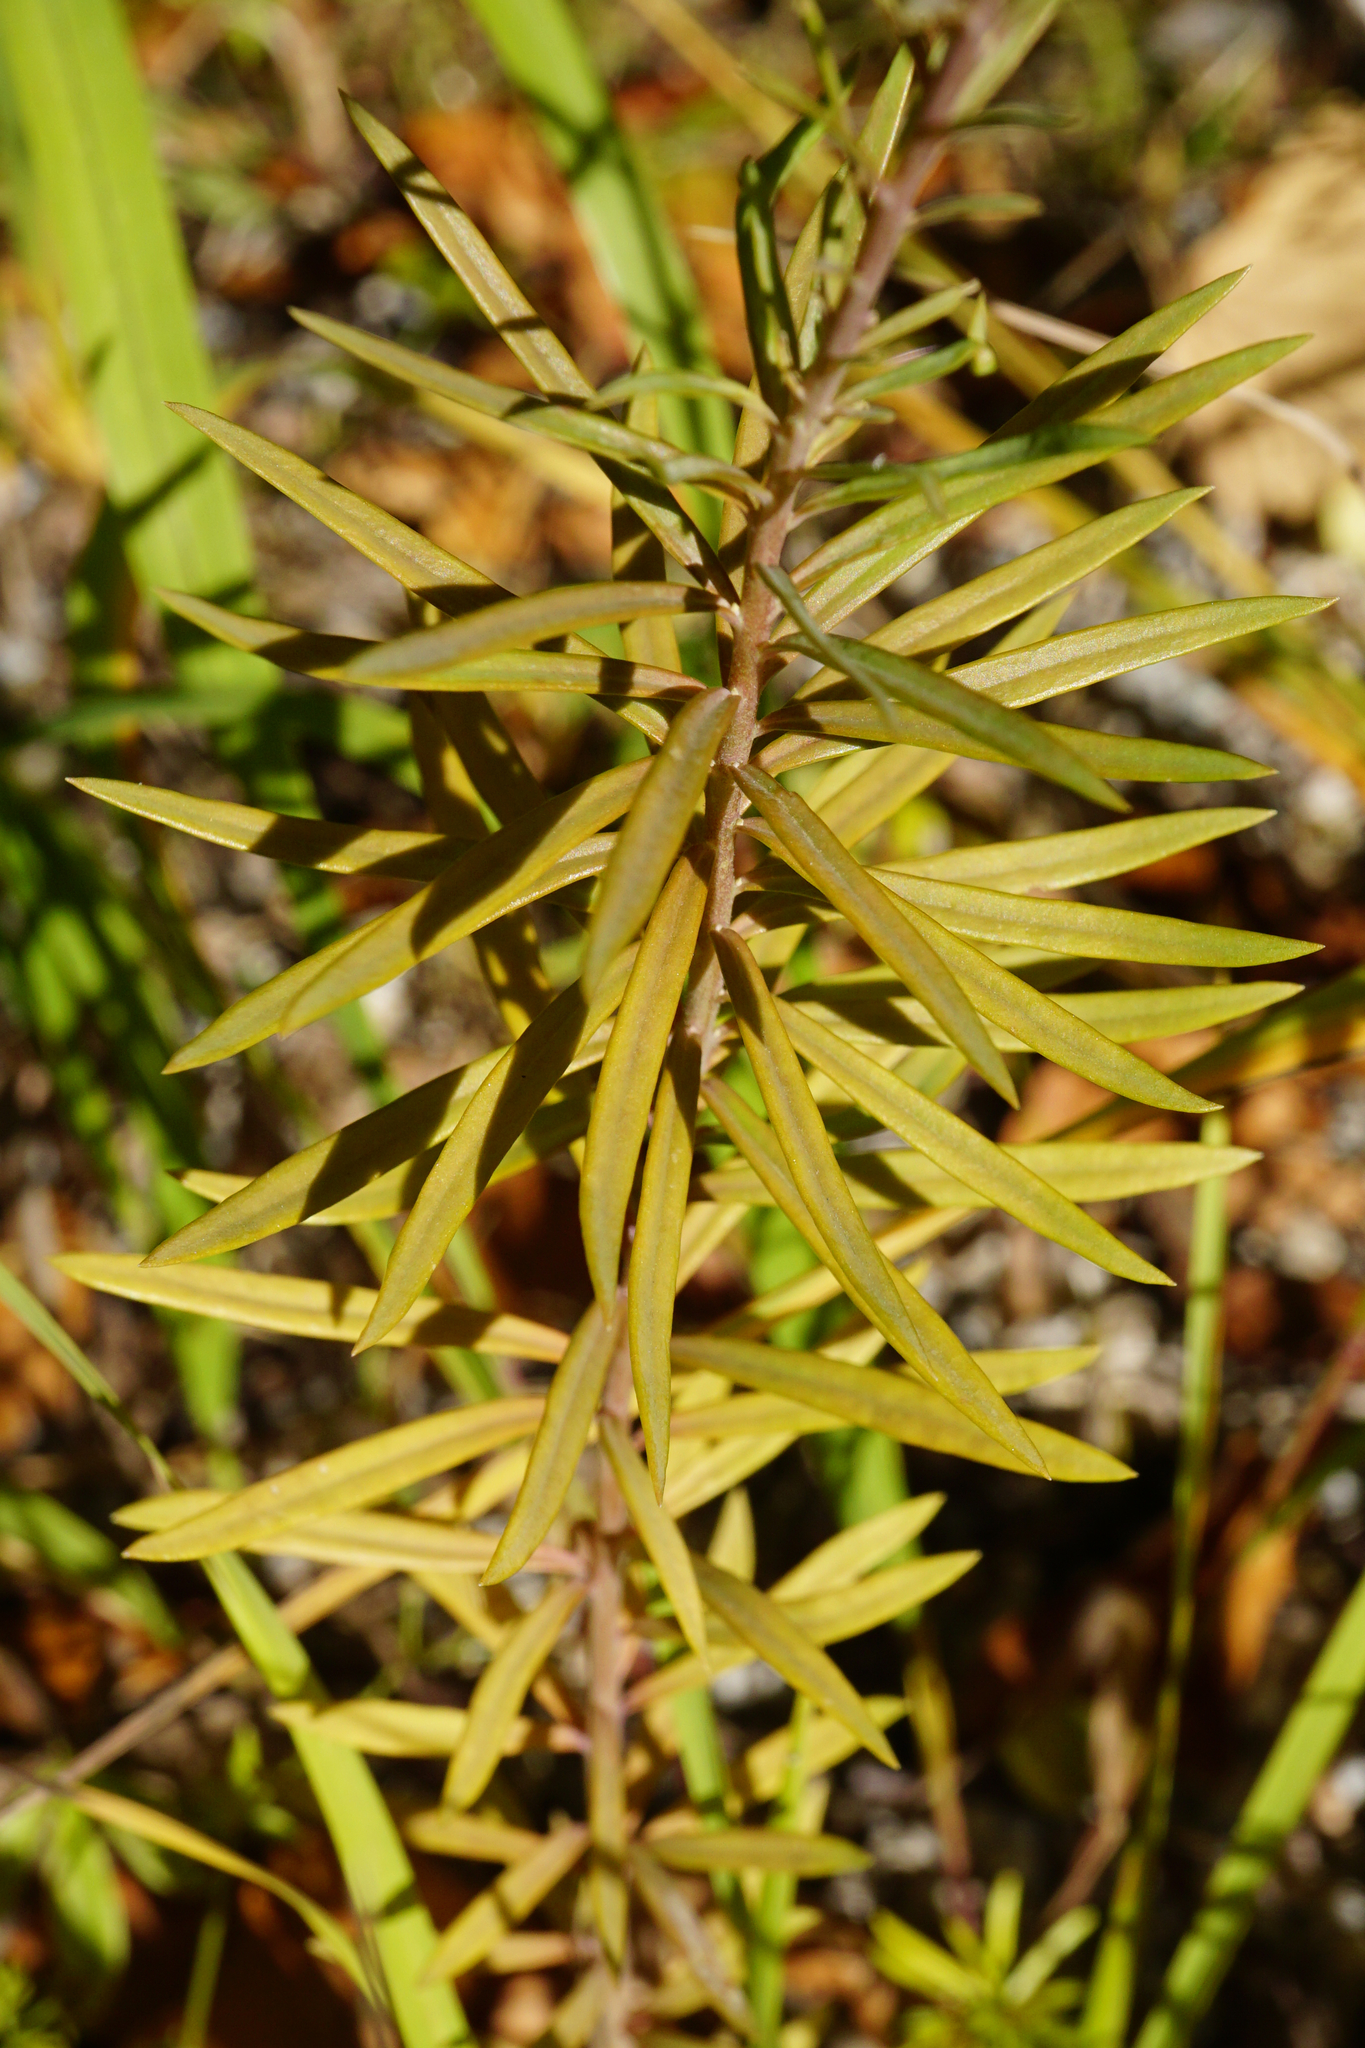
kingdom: Plantae
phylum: Tracheophyta
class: Magnoliopsida
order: Lamiales
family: Plantaginaceae
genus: Linaria
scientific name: Linaria vulgaris
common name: Butter and eggs
